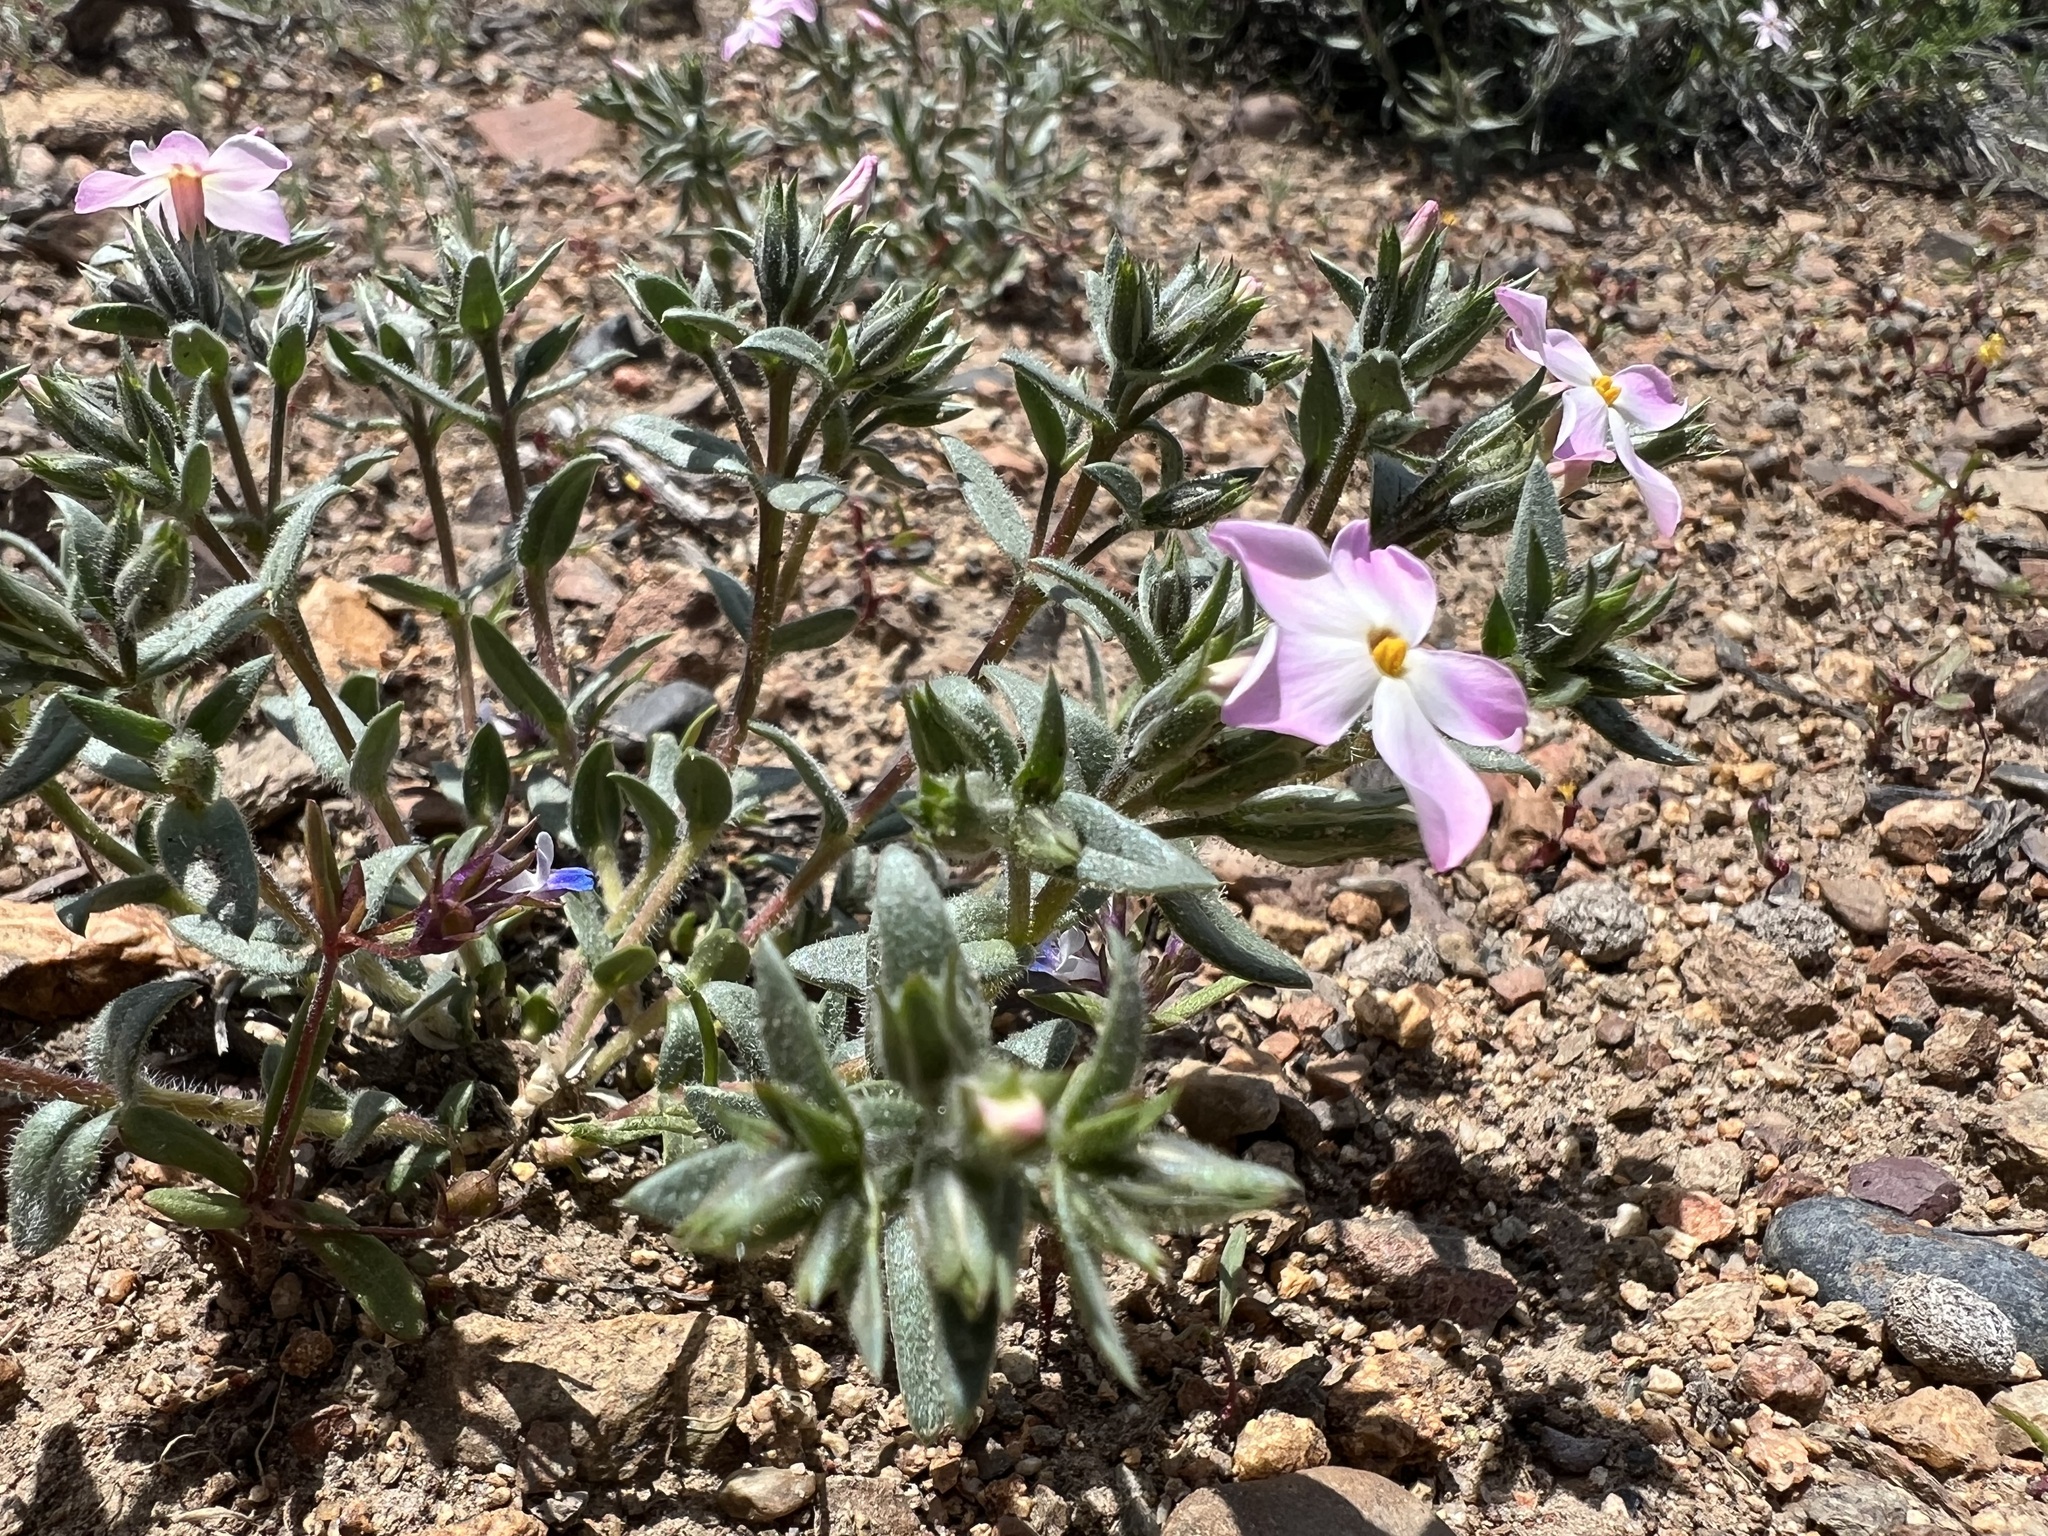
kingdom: Plantae
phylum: Tracheophyta
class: Magnoliopsida
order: Ericales
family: Polemoniaceae
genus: Phlox
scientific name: Phlox longifolia
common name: Longleaf phlox
